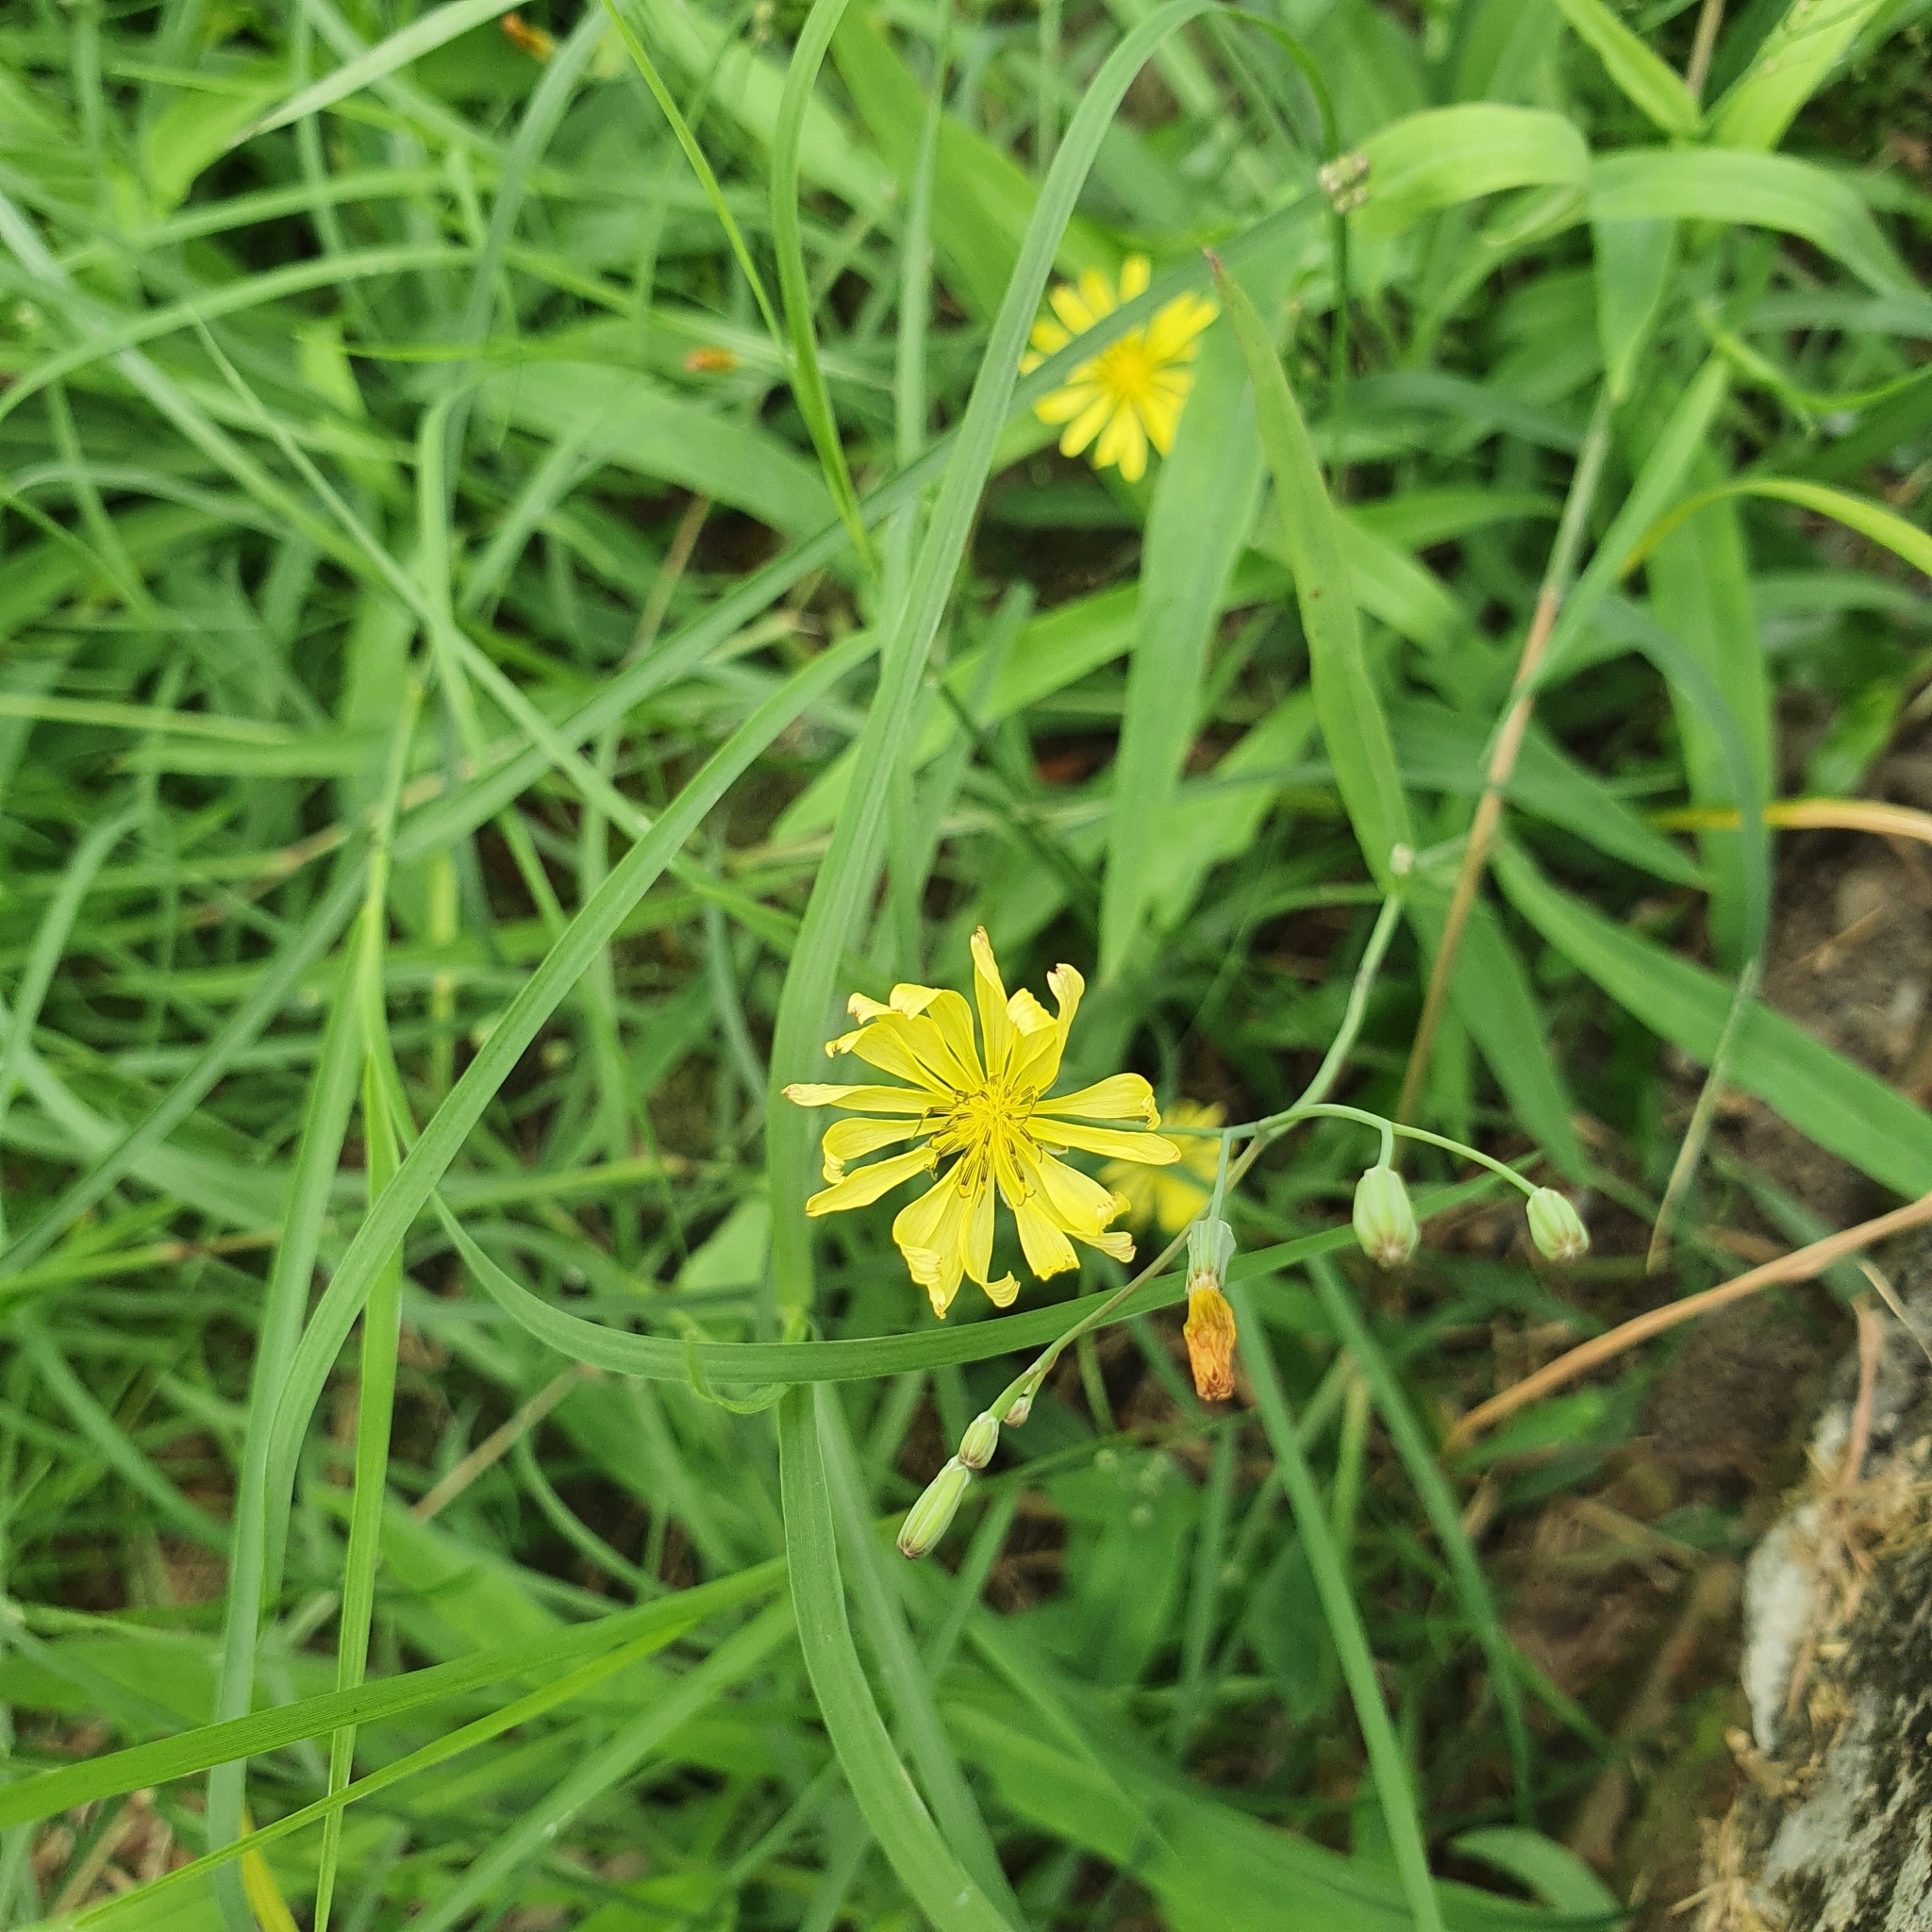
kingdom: Plantae
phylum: Tracheophyta
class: Magnoliopsida
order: Asterales
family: Asteraceae
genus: Ixeris
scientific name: Ixeris chinensis
